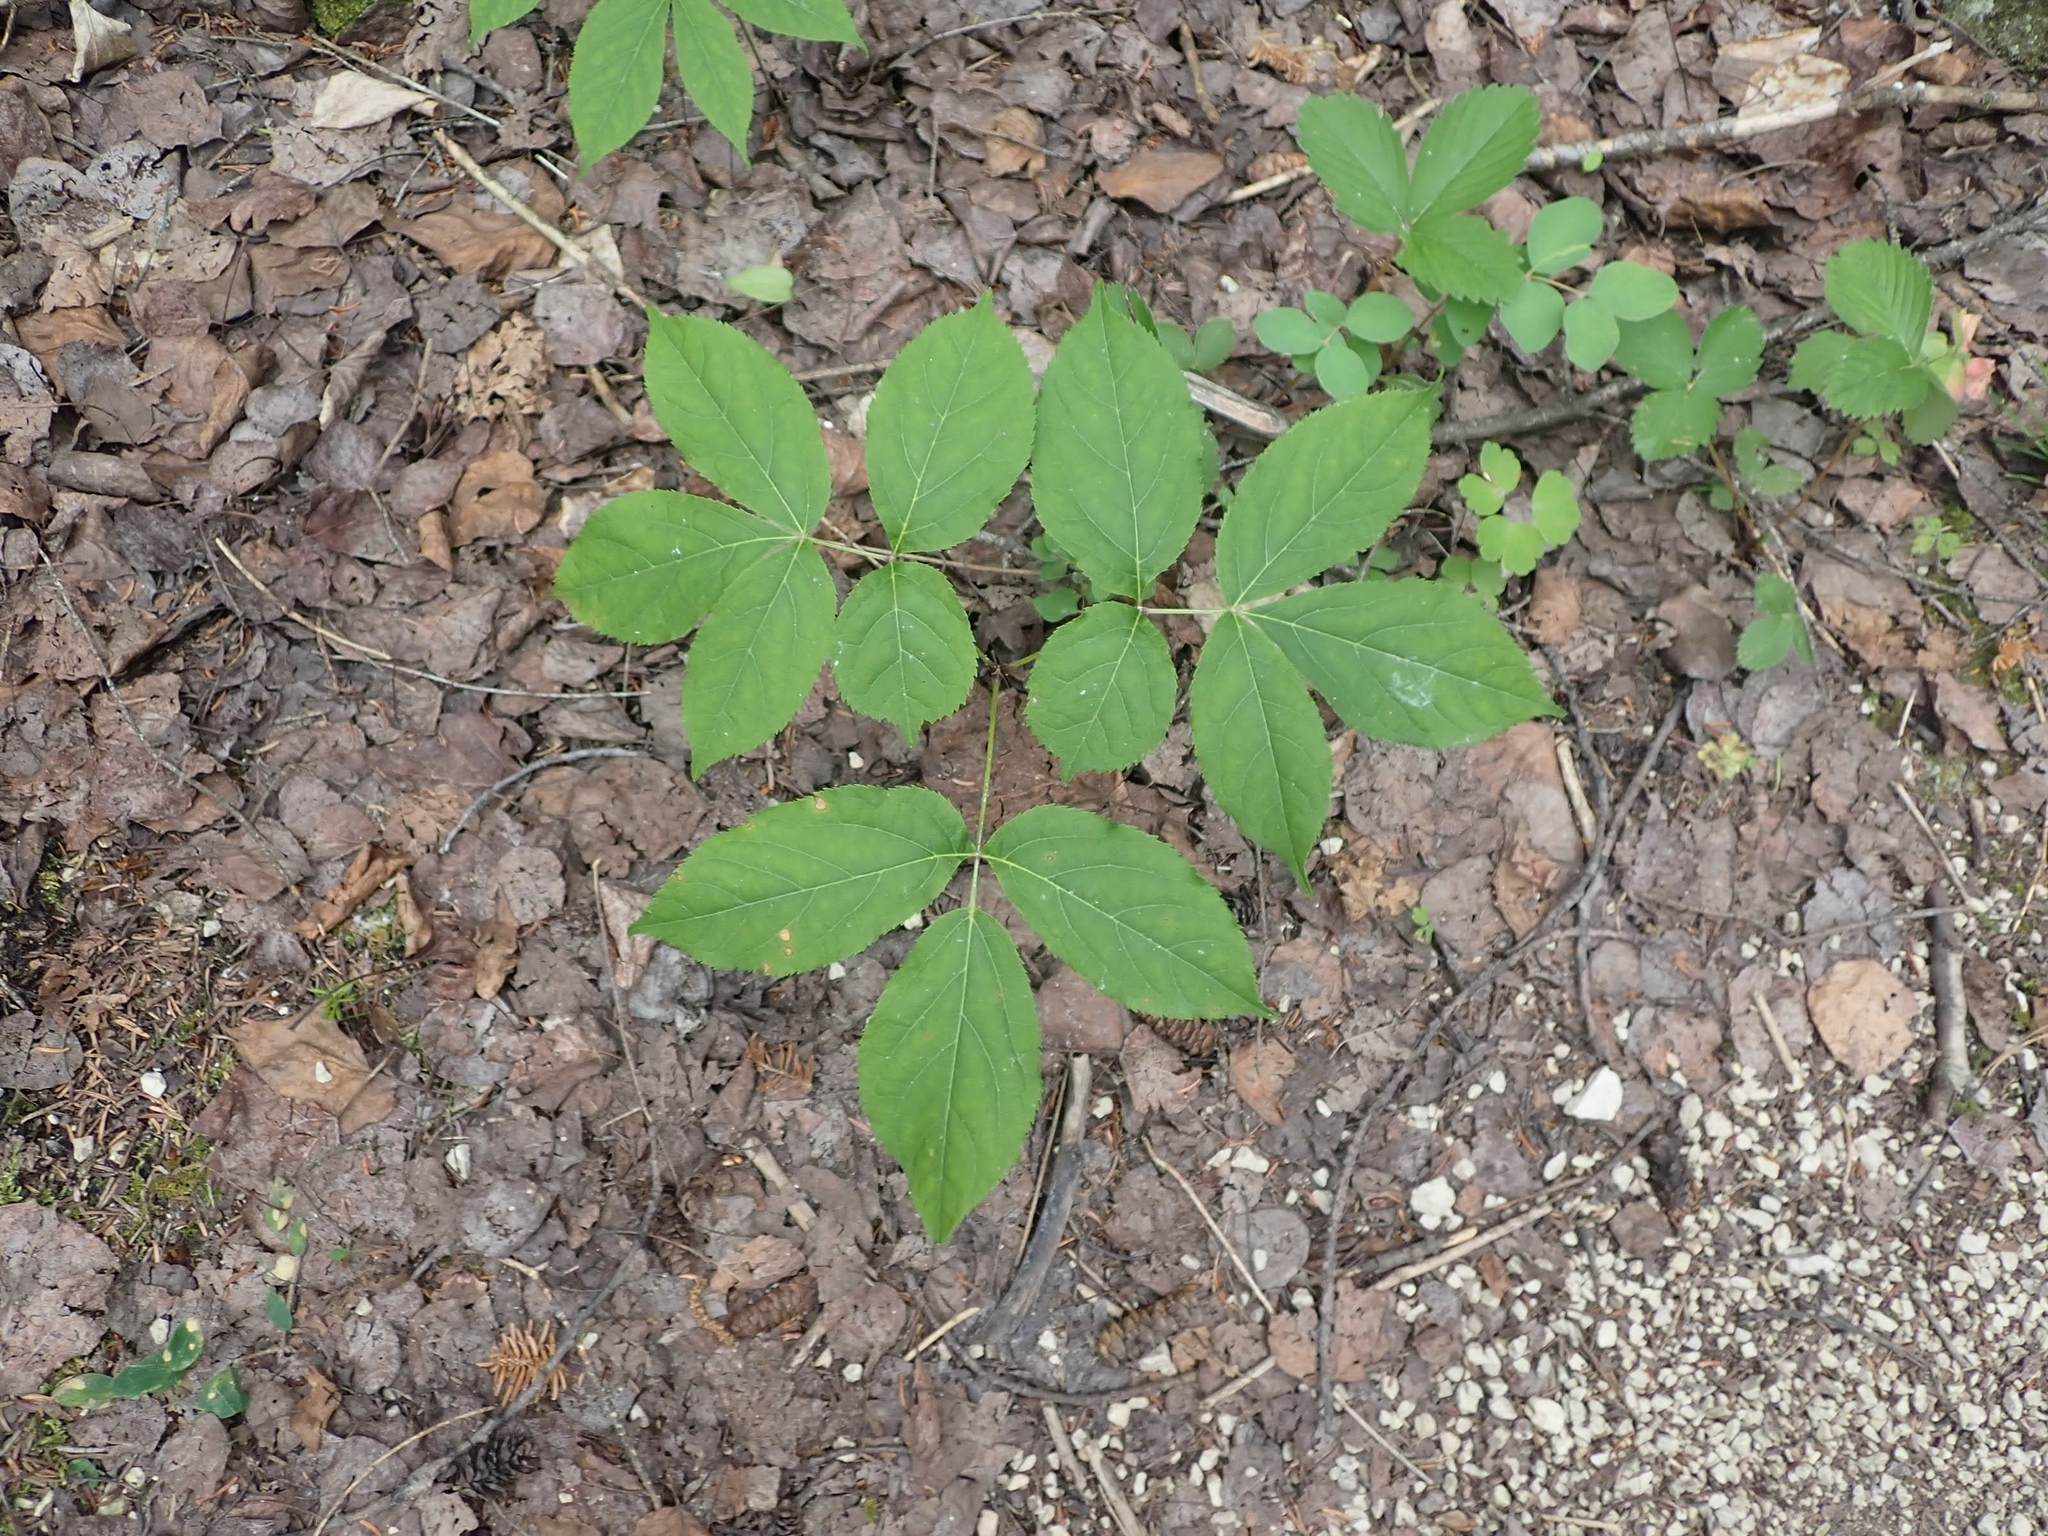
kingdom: Plantae
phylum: Tracheophyta
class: Magnoliopsida
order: Apiales
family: Araliaceae
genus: Aralia
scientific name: Aralia nudicaulis
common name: Wild sarsaparilla
